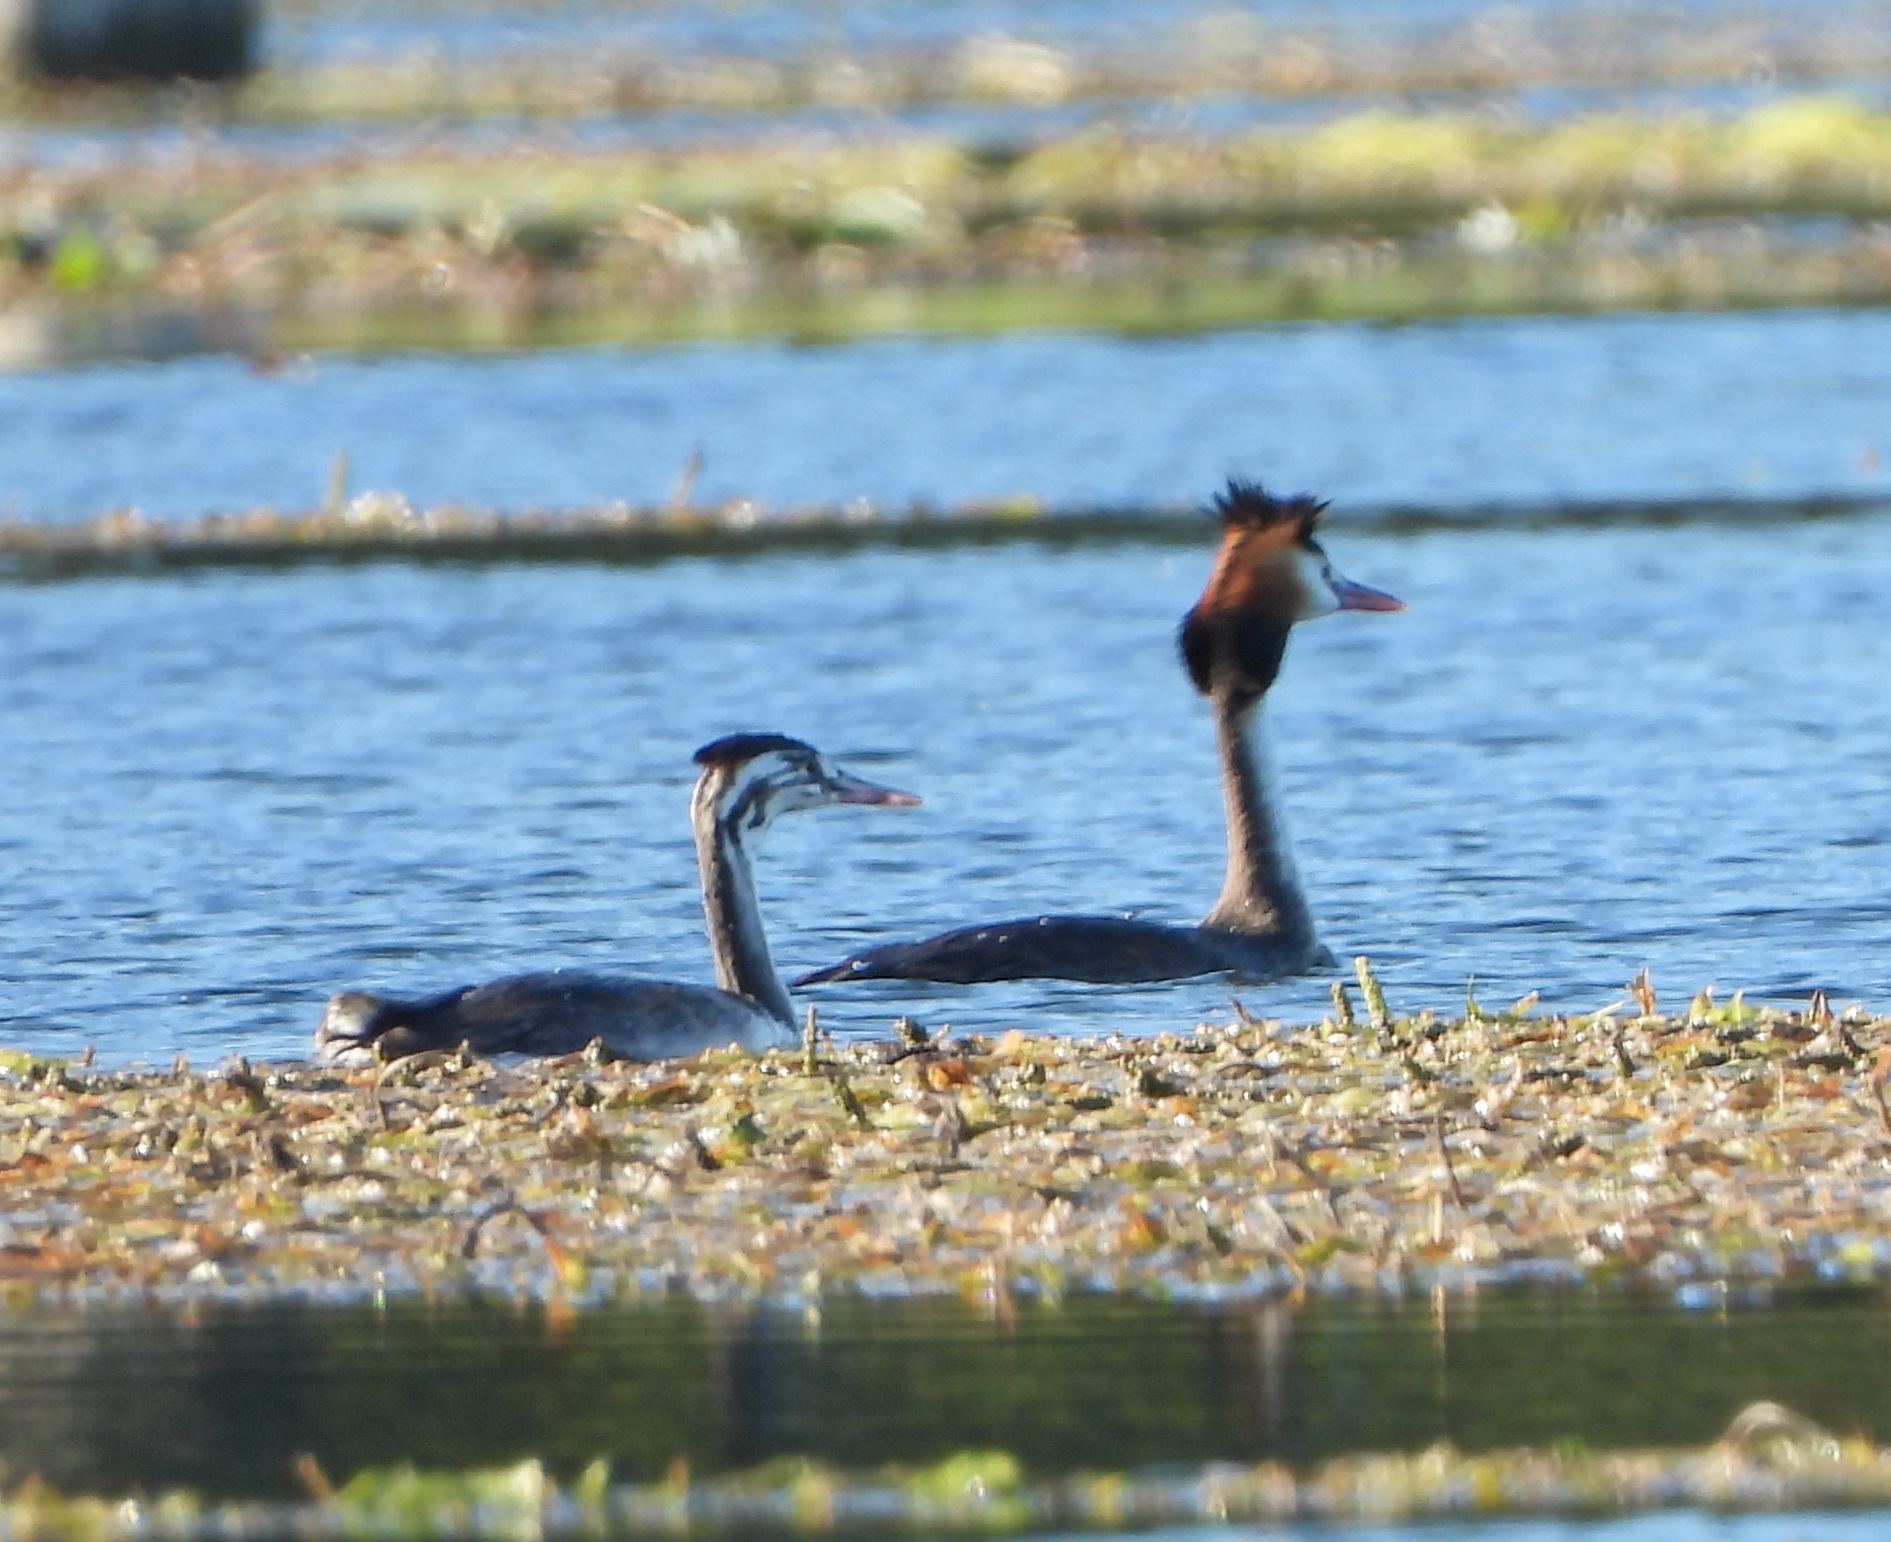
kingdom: Animalia
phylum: Chordata
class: Aves
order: Podicipediformes
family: Podicipedidae
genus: Podiceps
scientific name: Podiceps cristatus
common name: Great crested grebe
